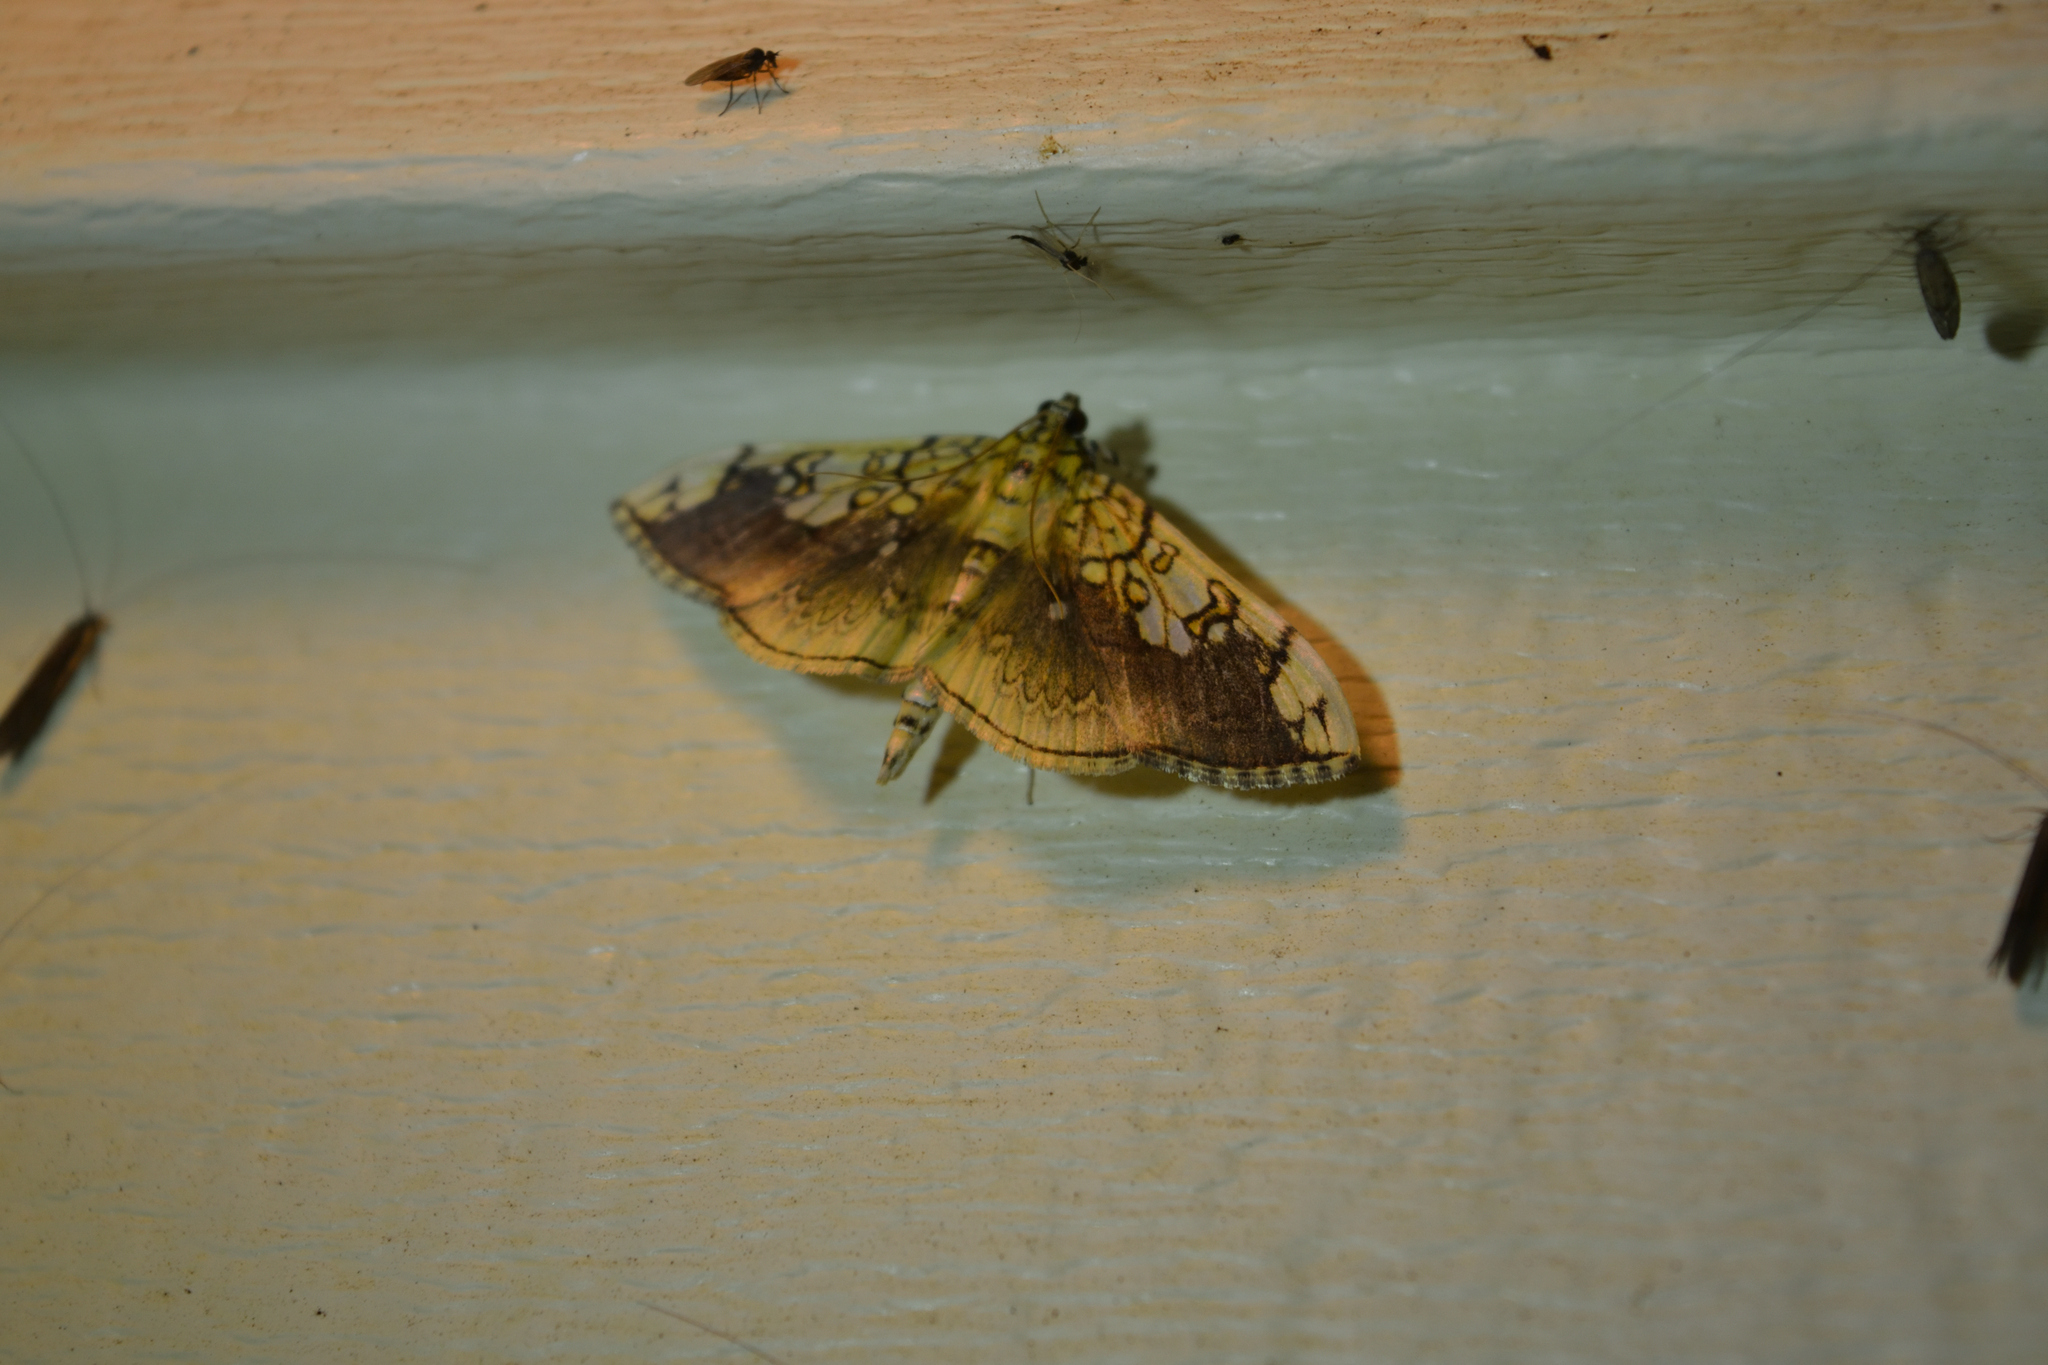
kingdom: Animalia
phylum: Arthropoda
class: Insecta
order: Lepidoptera
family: Crambidae
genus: Pantographa
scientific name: Pantographa limata
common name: Basswood leafroller moth
